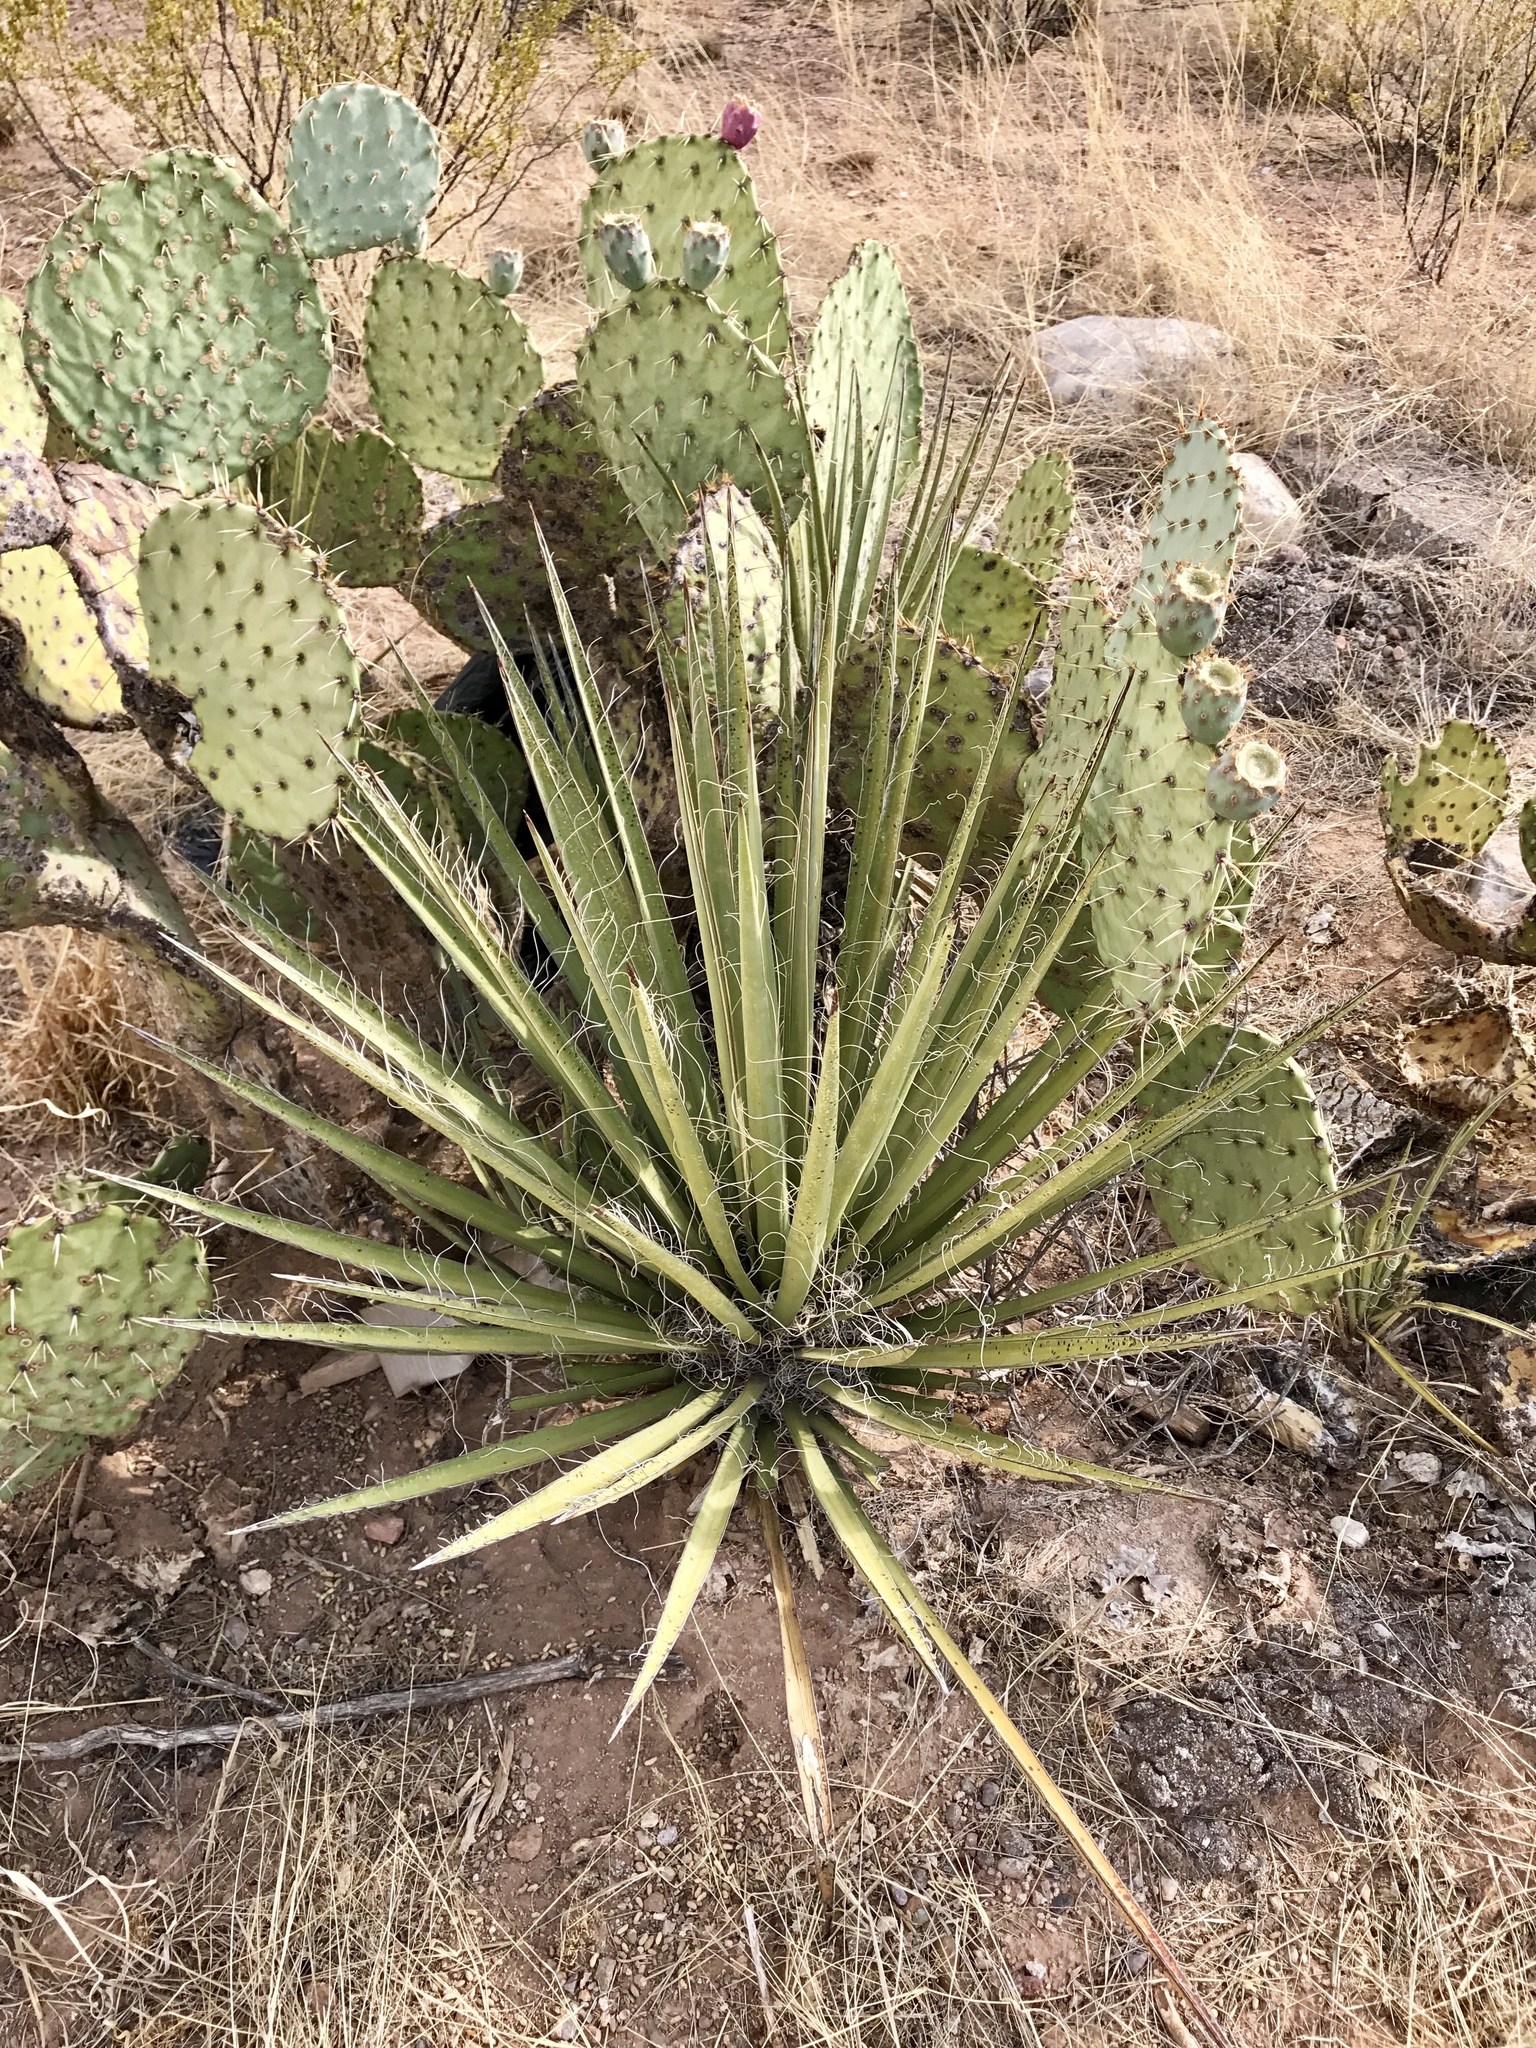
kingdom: Plantae
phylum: Tracheophyta
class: Liliopsida
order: Asparagales
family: Asparagaceae
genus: Yucca
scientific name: Yucca baccata
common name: Banana yucca
